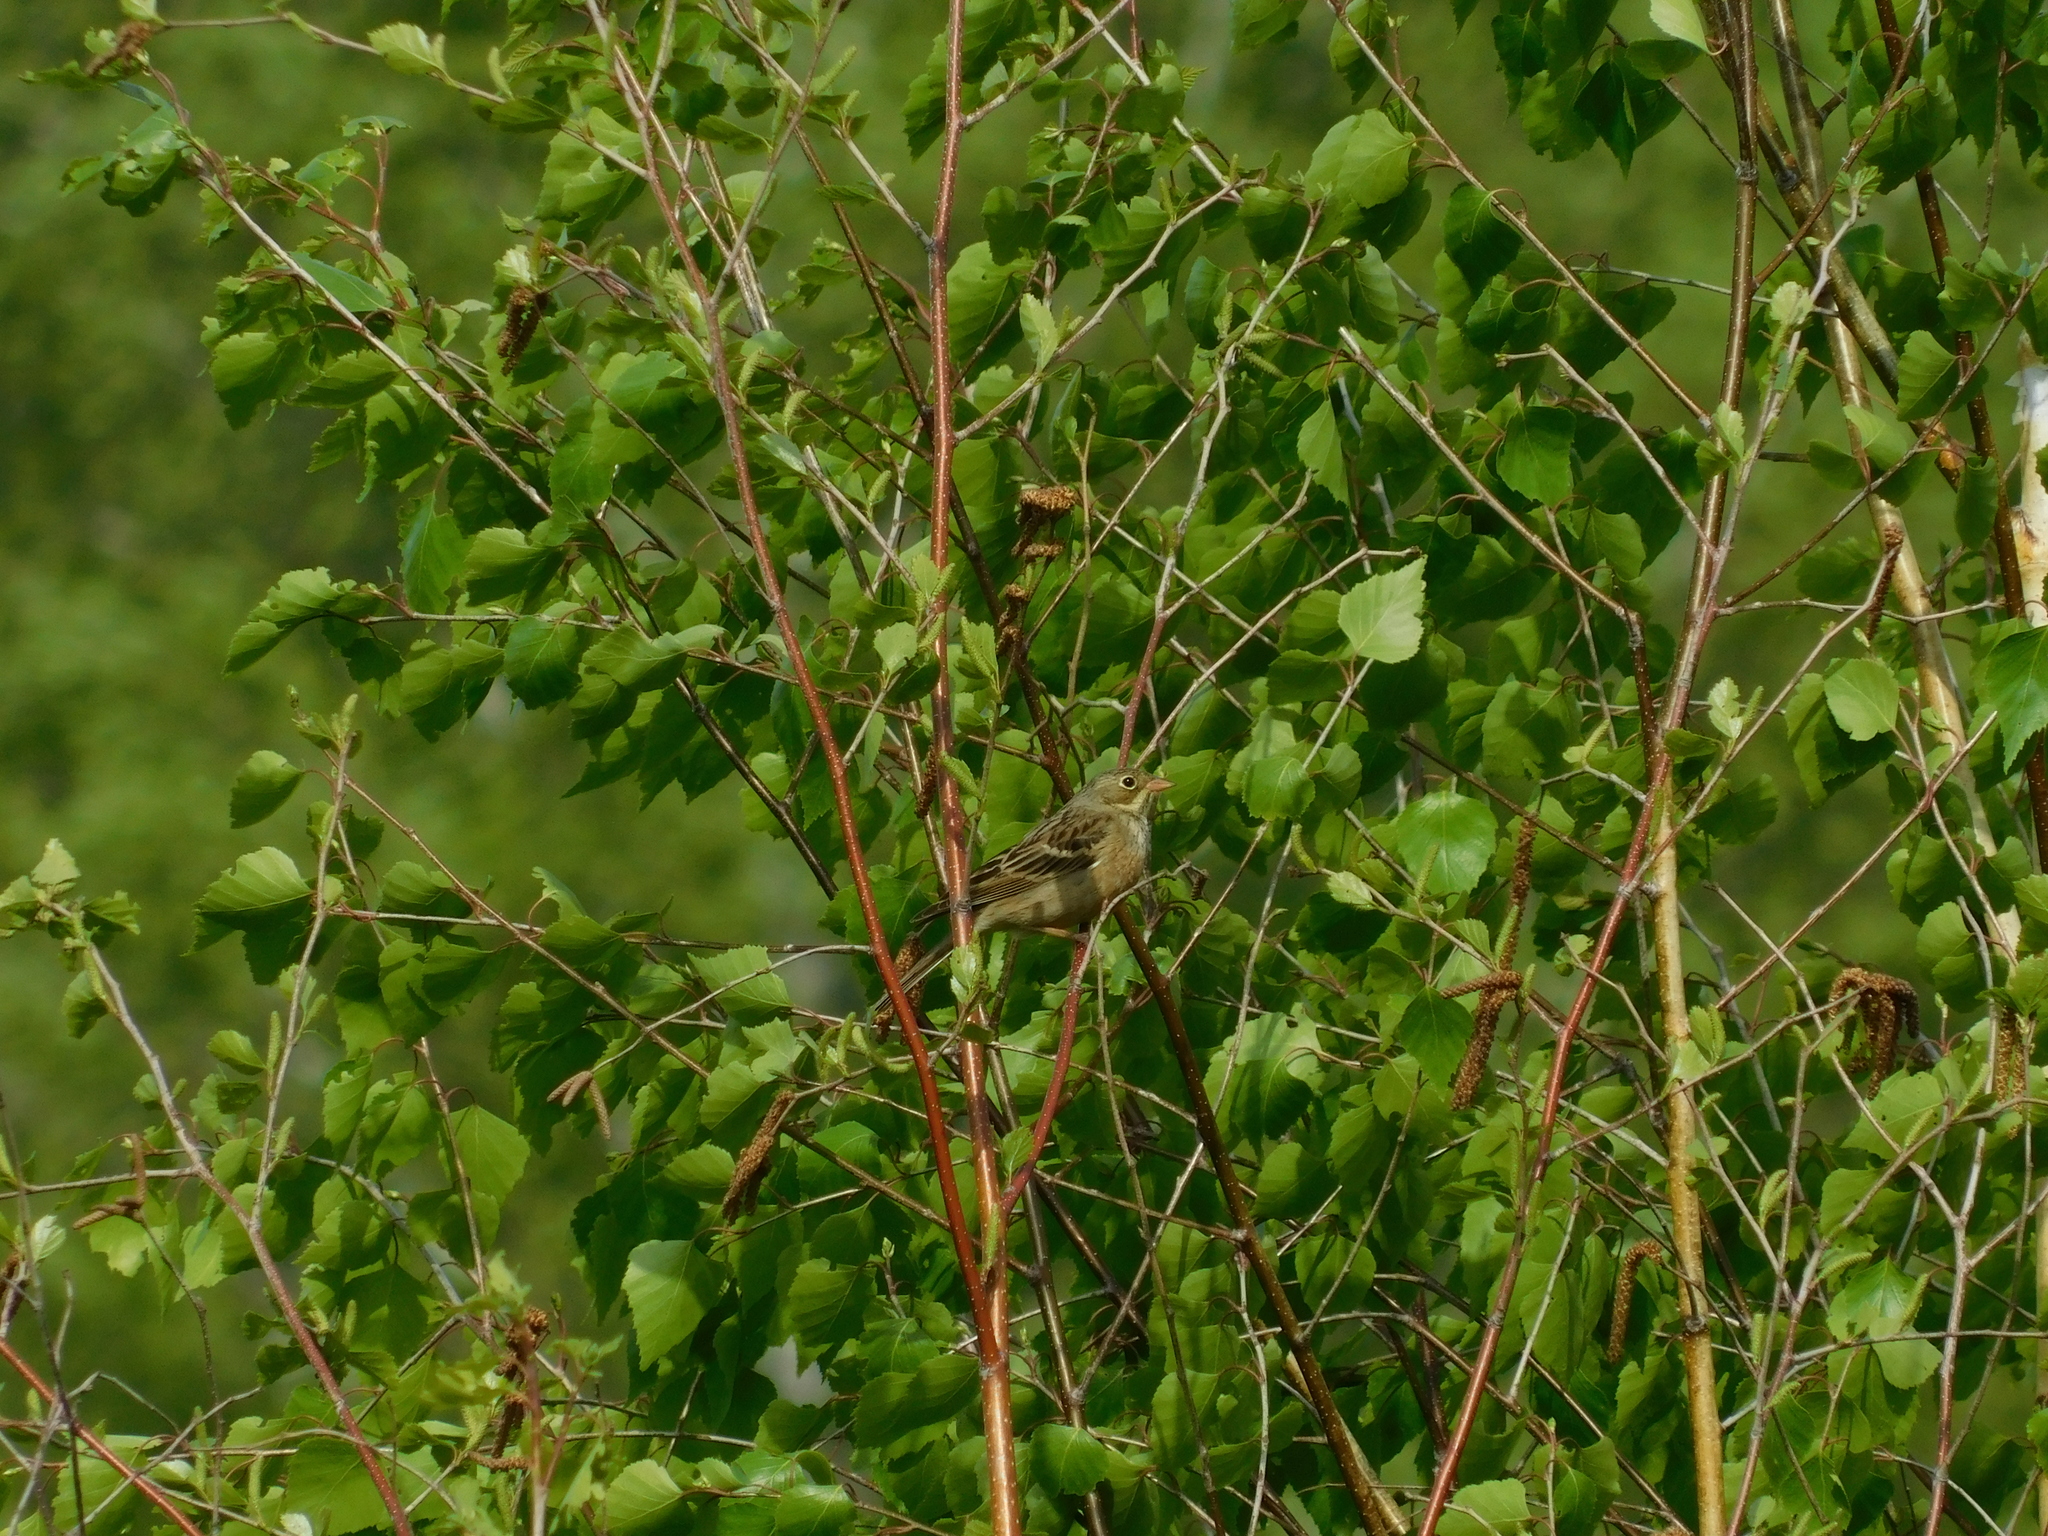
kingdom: Animalia
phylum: Chordata
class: Aves
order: Passeriformes
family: Emberizidae
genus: Emberiza
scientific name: Emberiza hortulana
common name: Ortolan bunting
